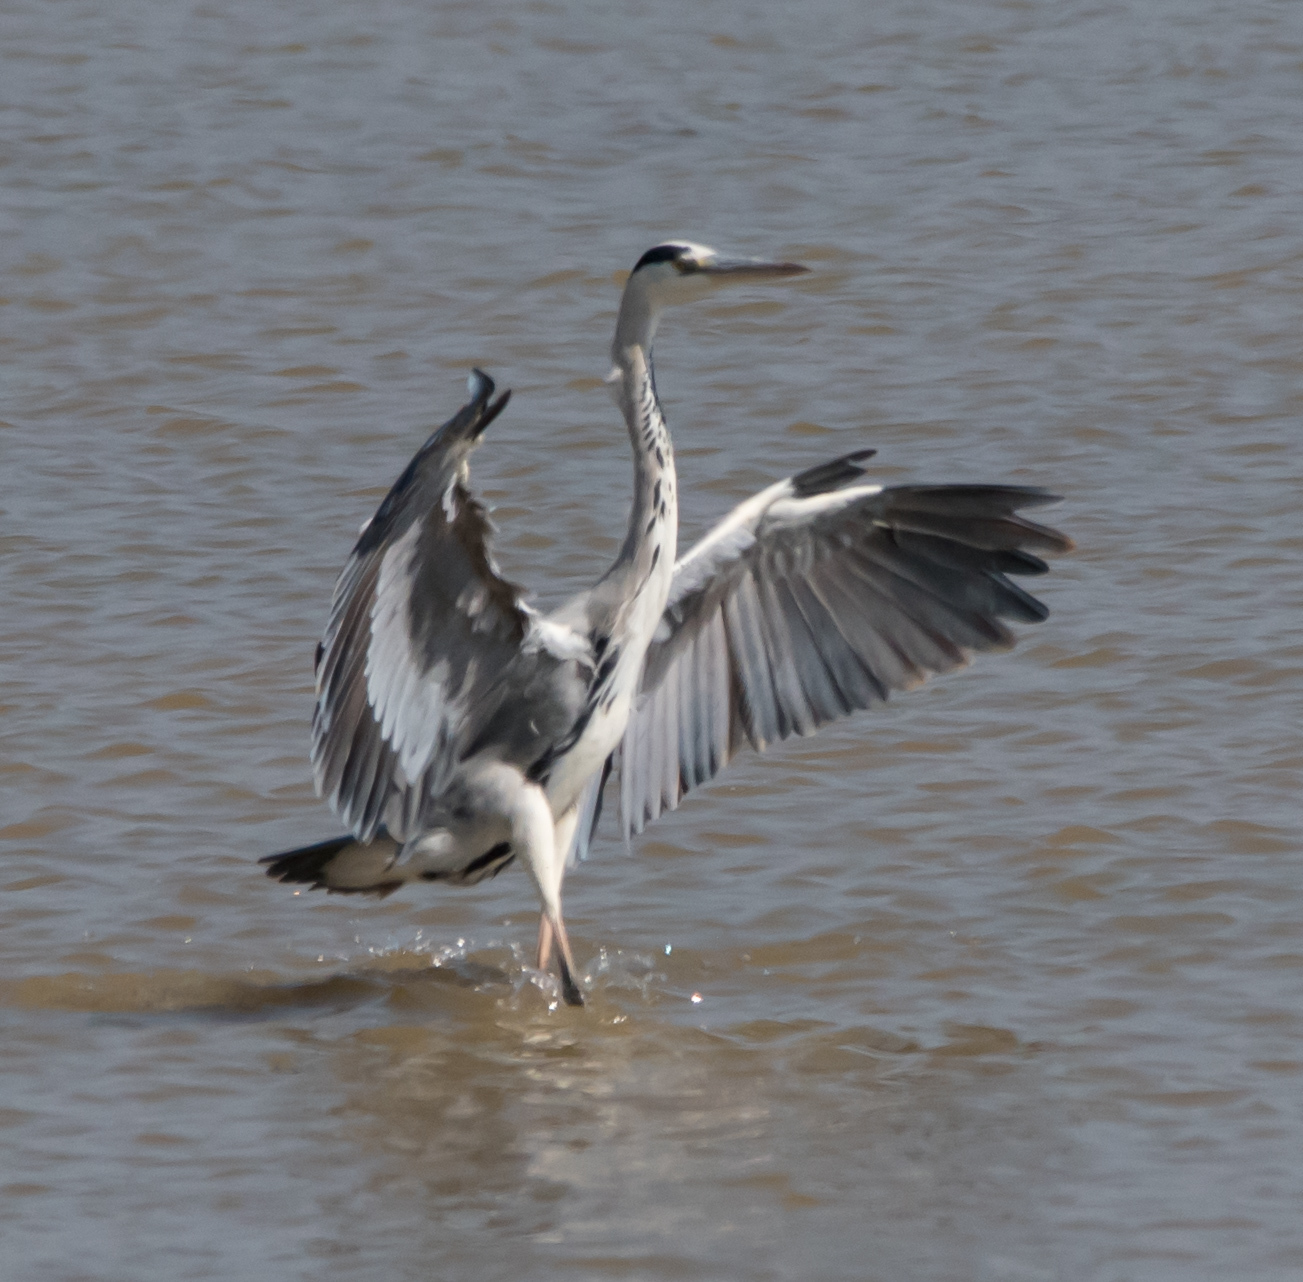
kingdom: Animalia
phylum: Chordata
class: Aves
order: Pelecaniformes
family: Ardeidae
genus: Ardea
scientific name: Ardea cinerea
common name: Grey heron
